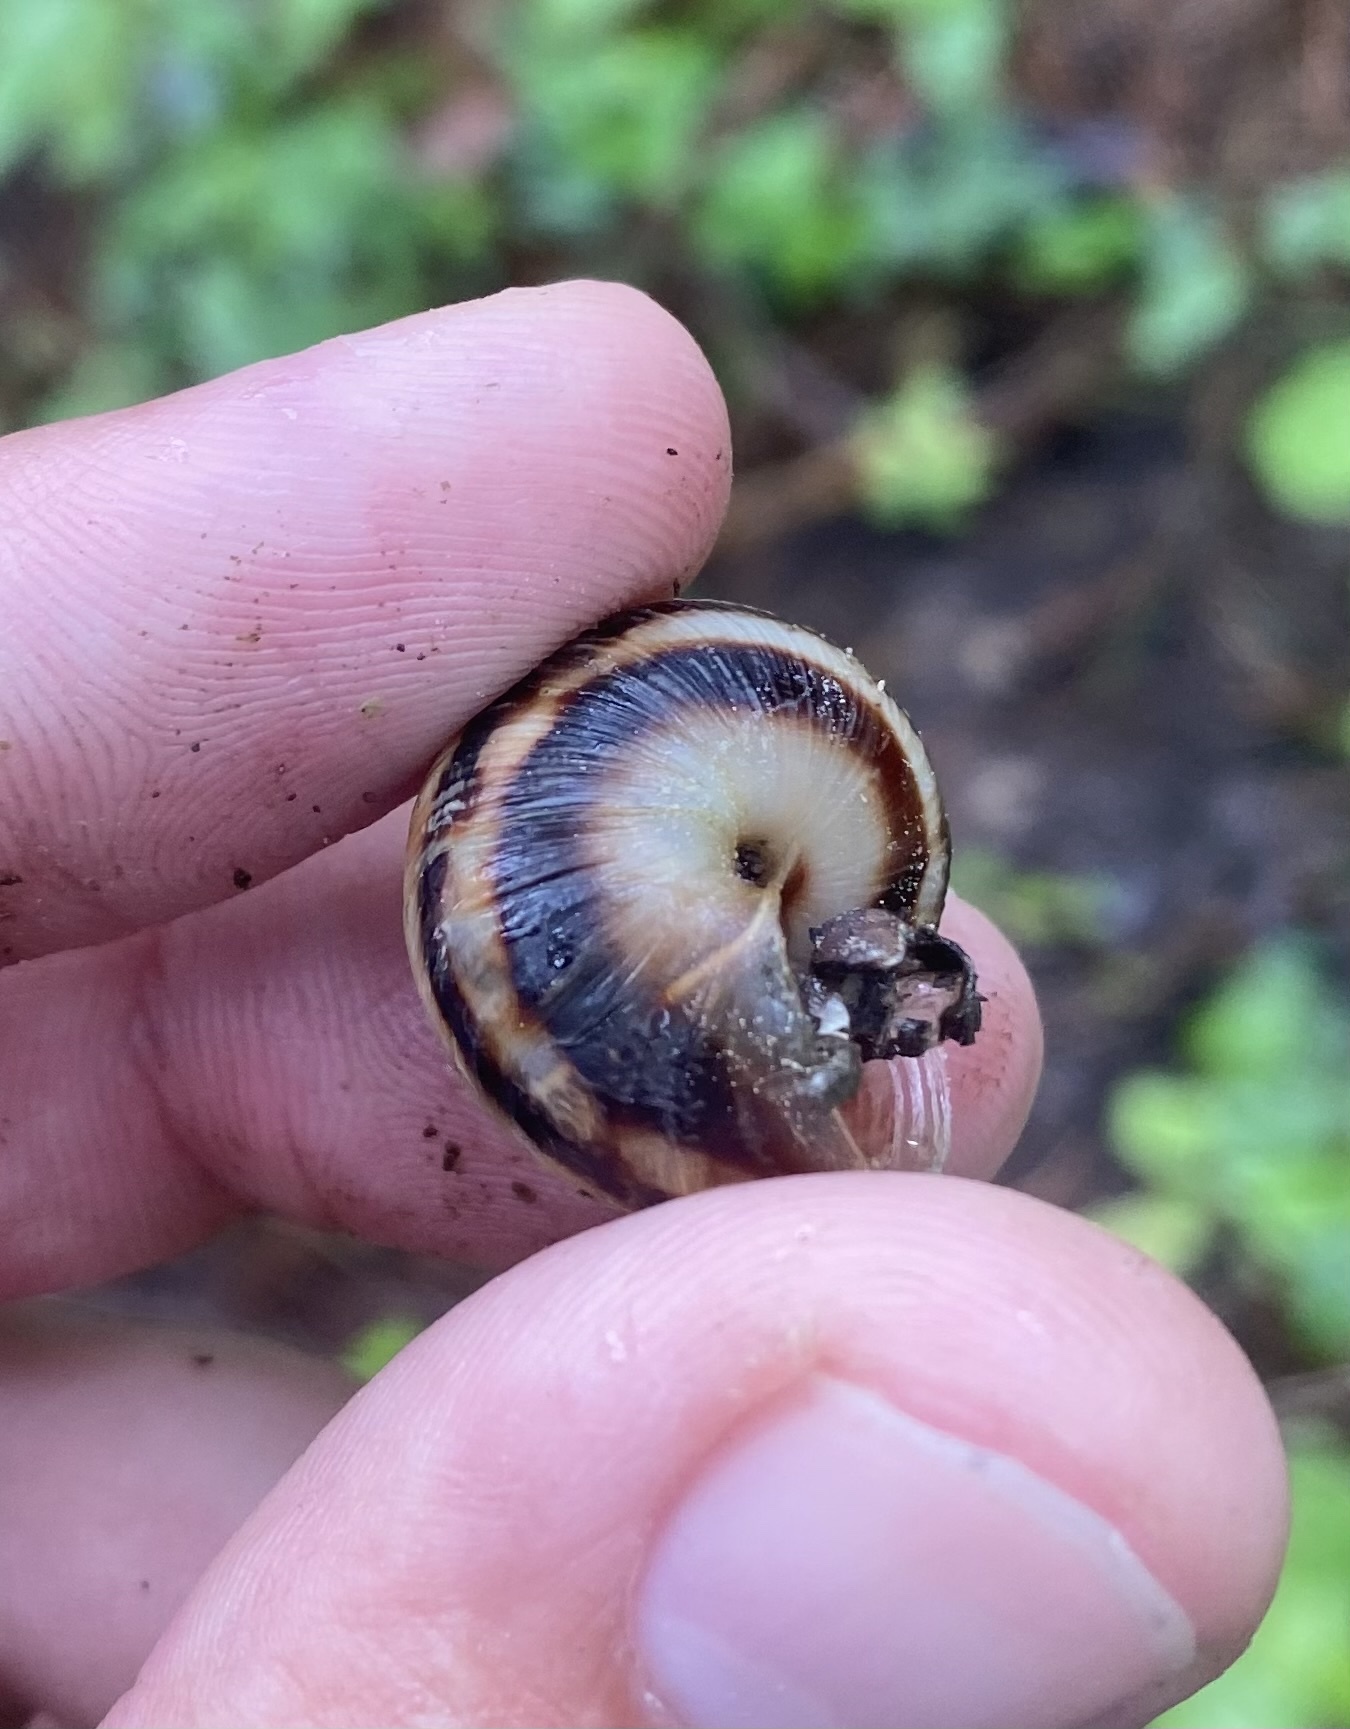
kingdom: Animalia
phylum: Mollusca
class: Gastropoda
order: Stylommatophora
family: Helicidae
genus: Caucasotachea
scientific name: Caucasotachea atrolabiata
